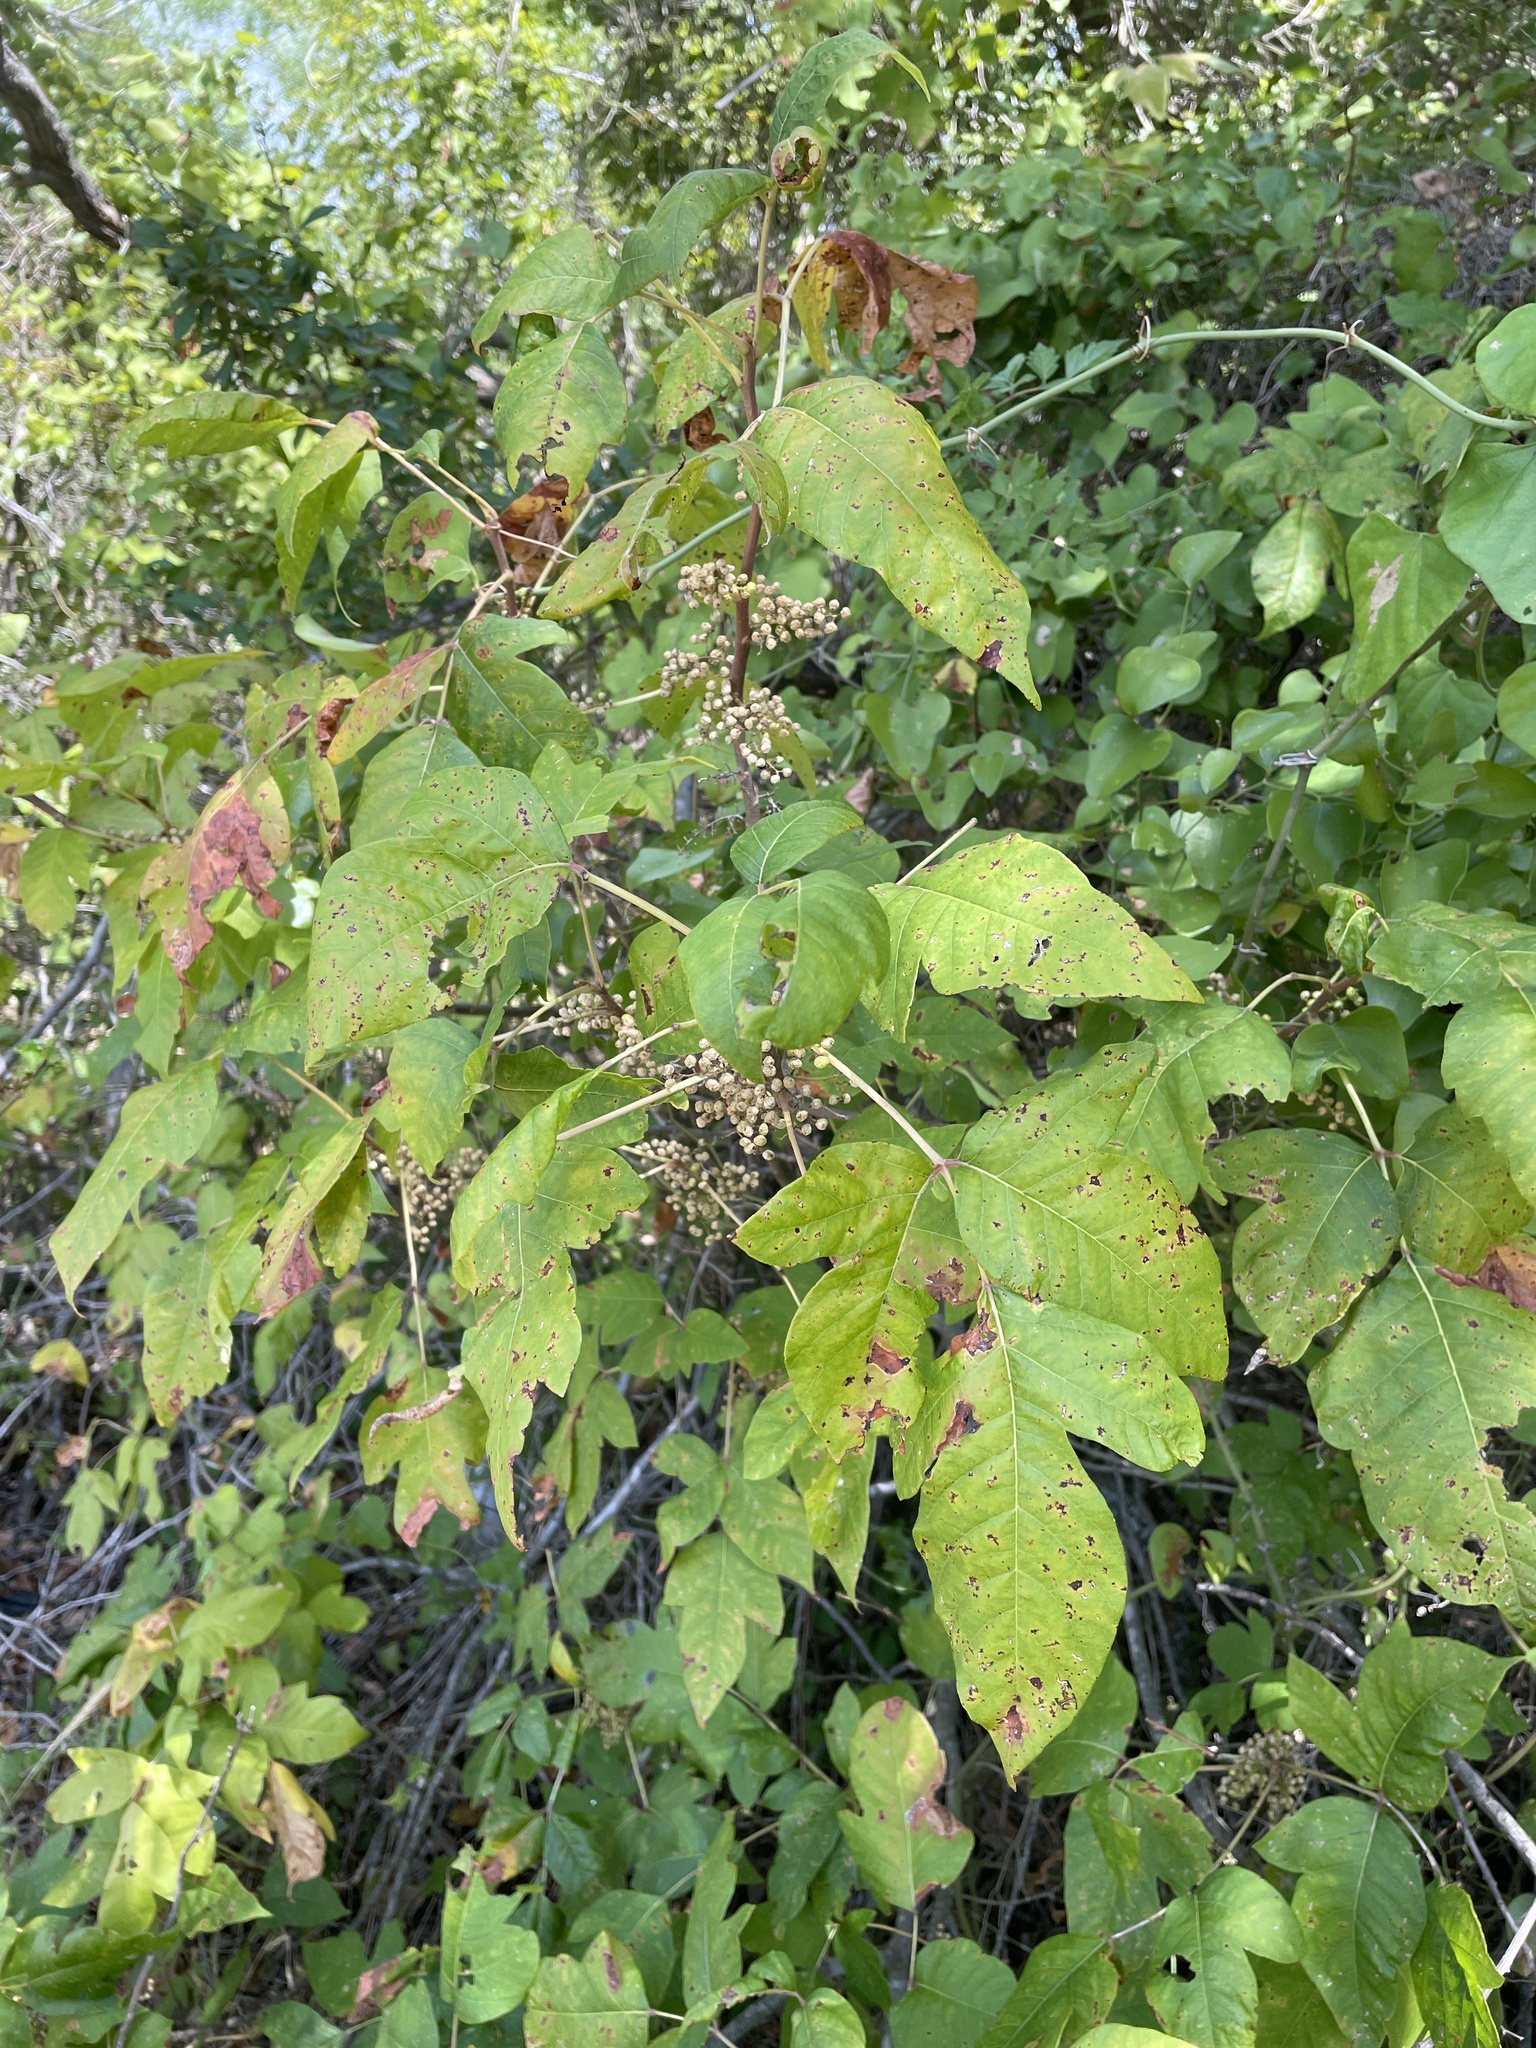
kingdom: Plantae
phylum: Tracheophyta
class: Magnoliopsida
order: Sapindales
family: Anacardiaceae
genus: Toxicodendron
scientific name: Toxicodendron radicans
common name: Poison ivy
